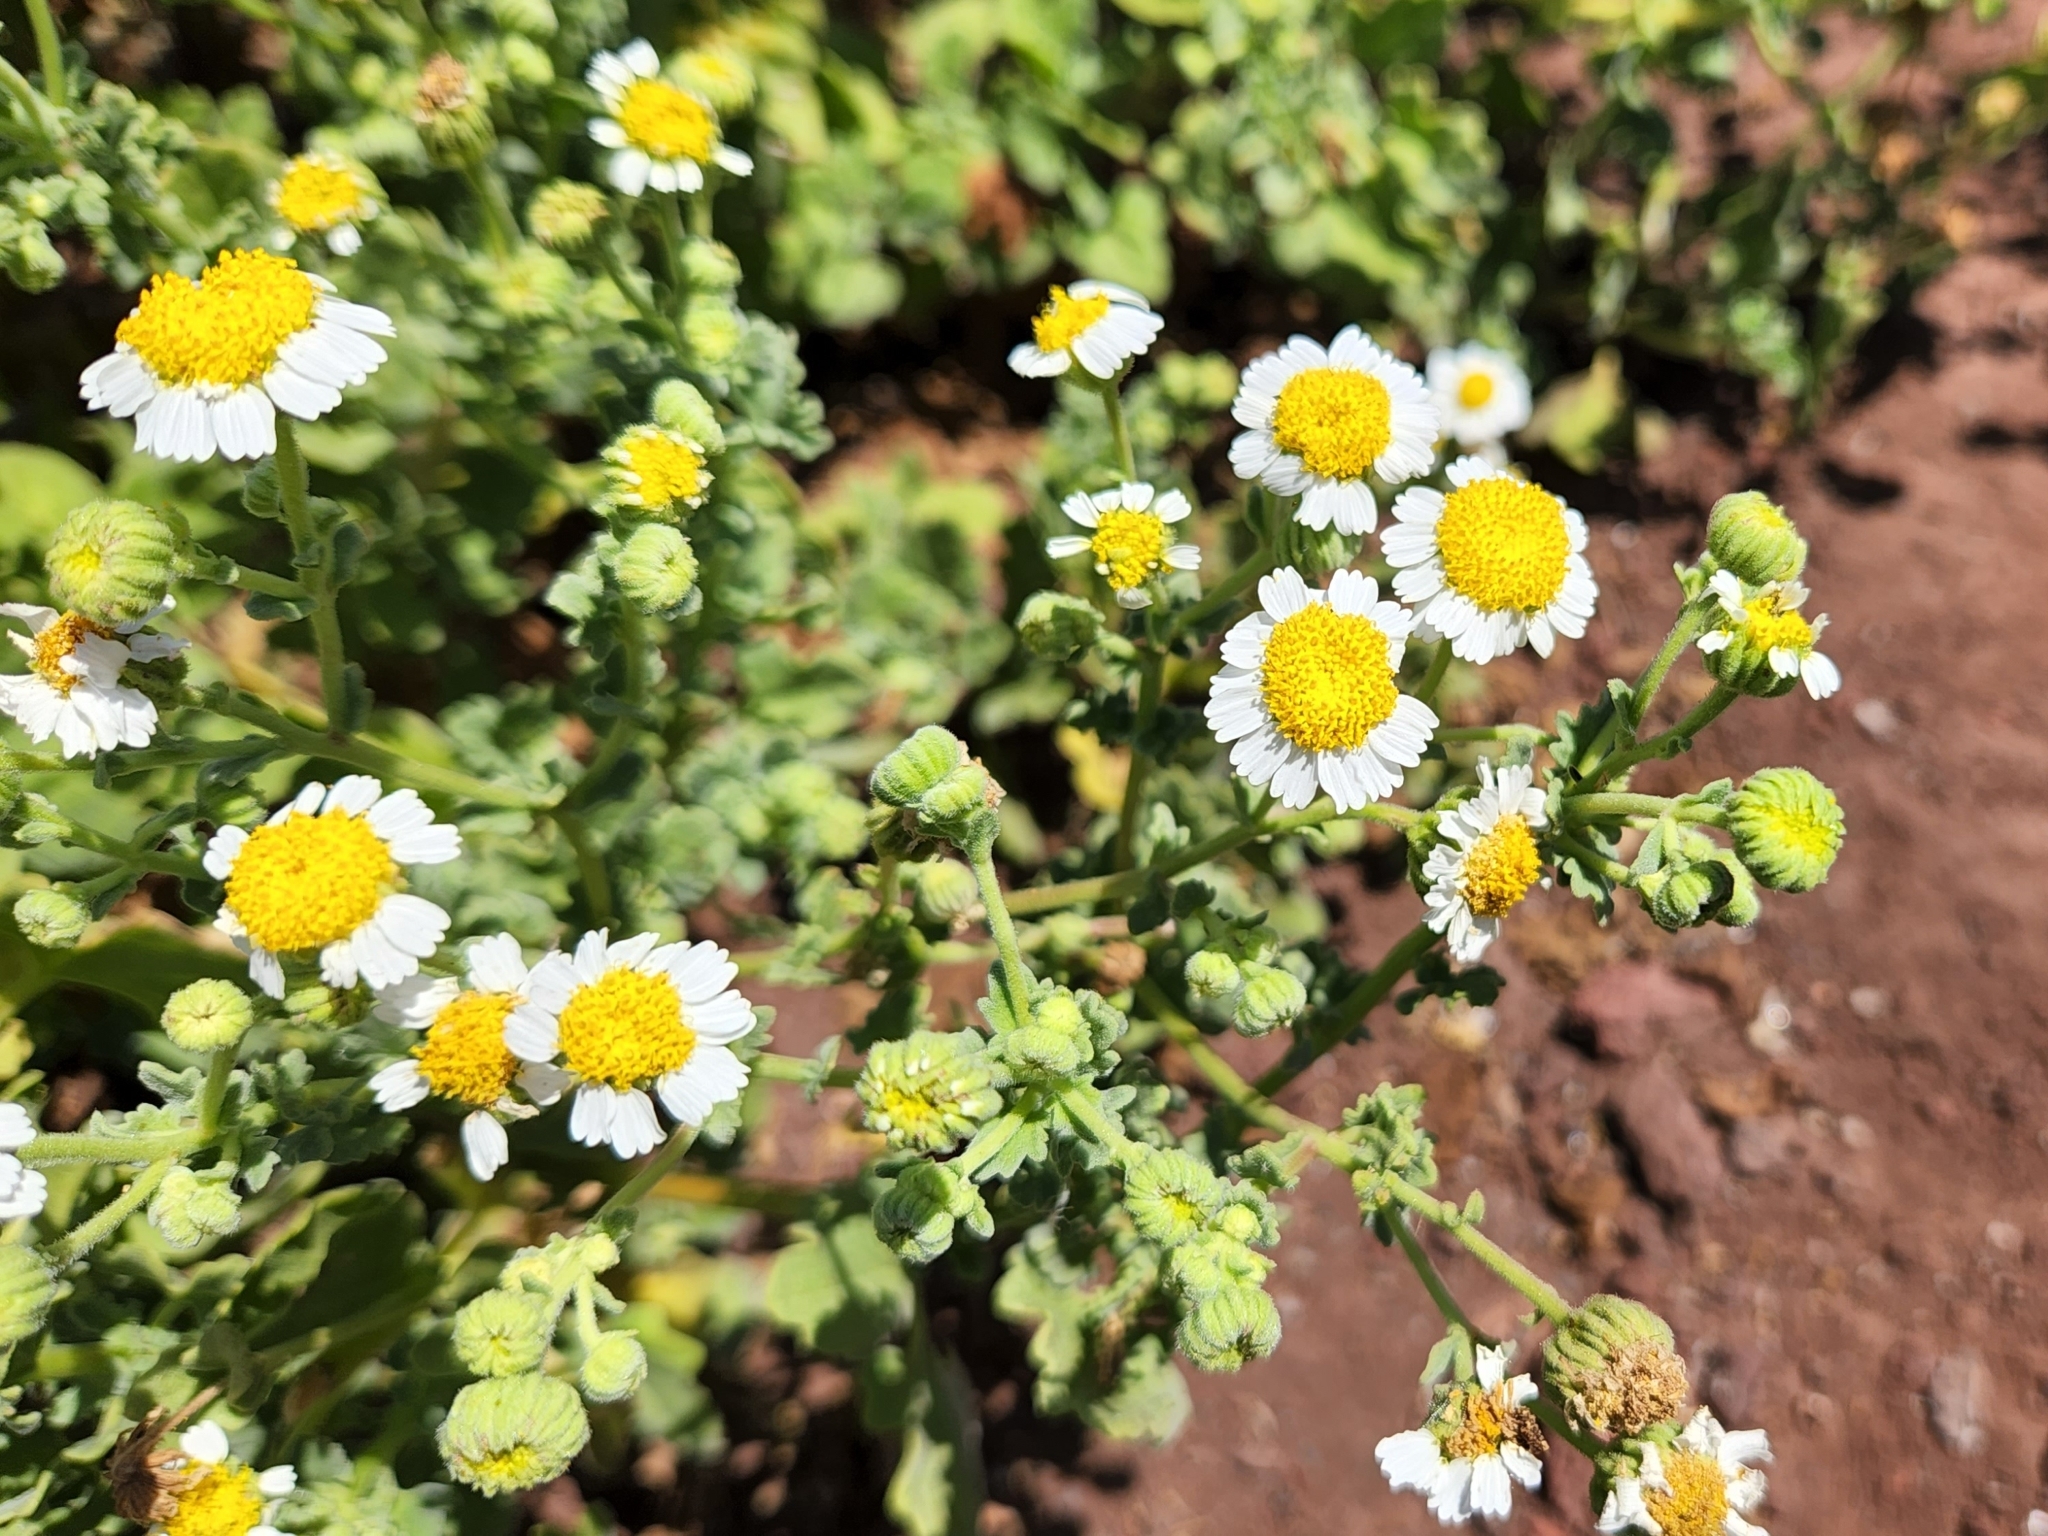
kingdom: Plantae
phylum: Tracheophyta
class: Magnoliopsida
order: Asterales
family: Asteraceae
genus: Perityle
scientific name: Perityle socorrosensis
